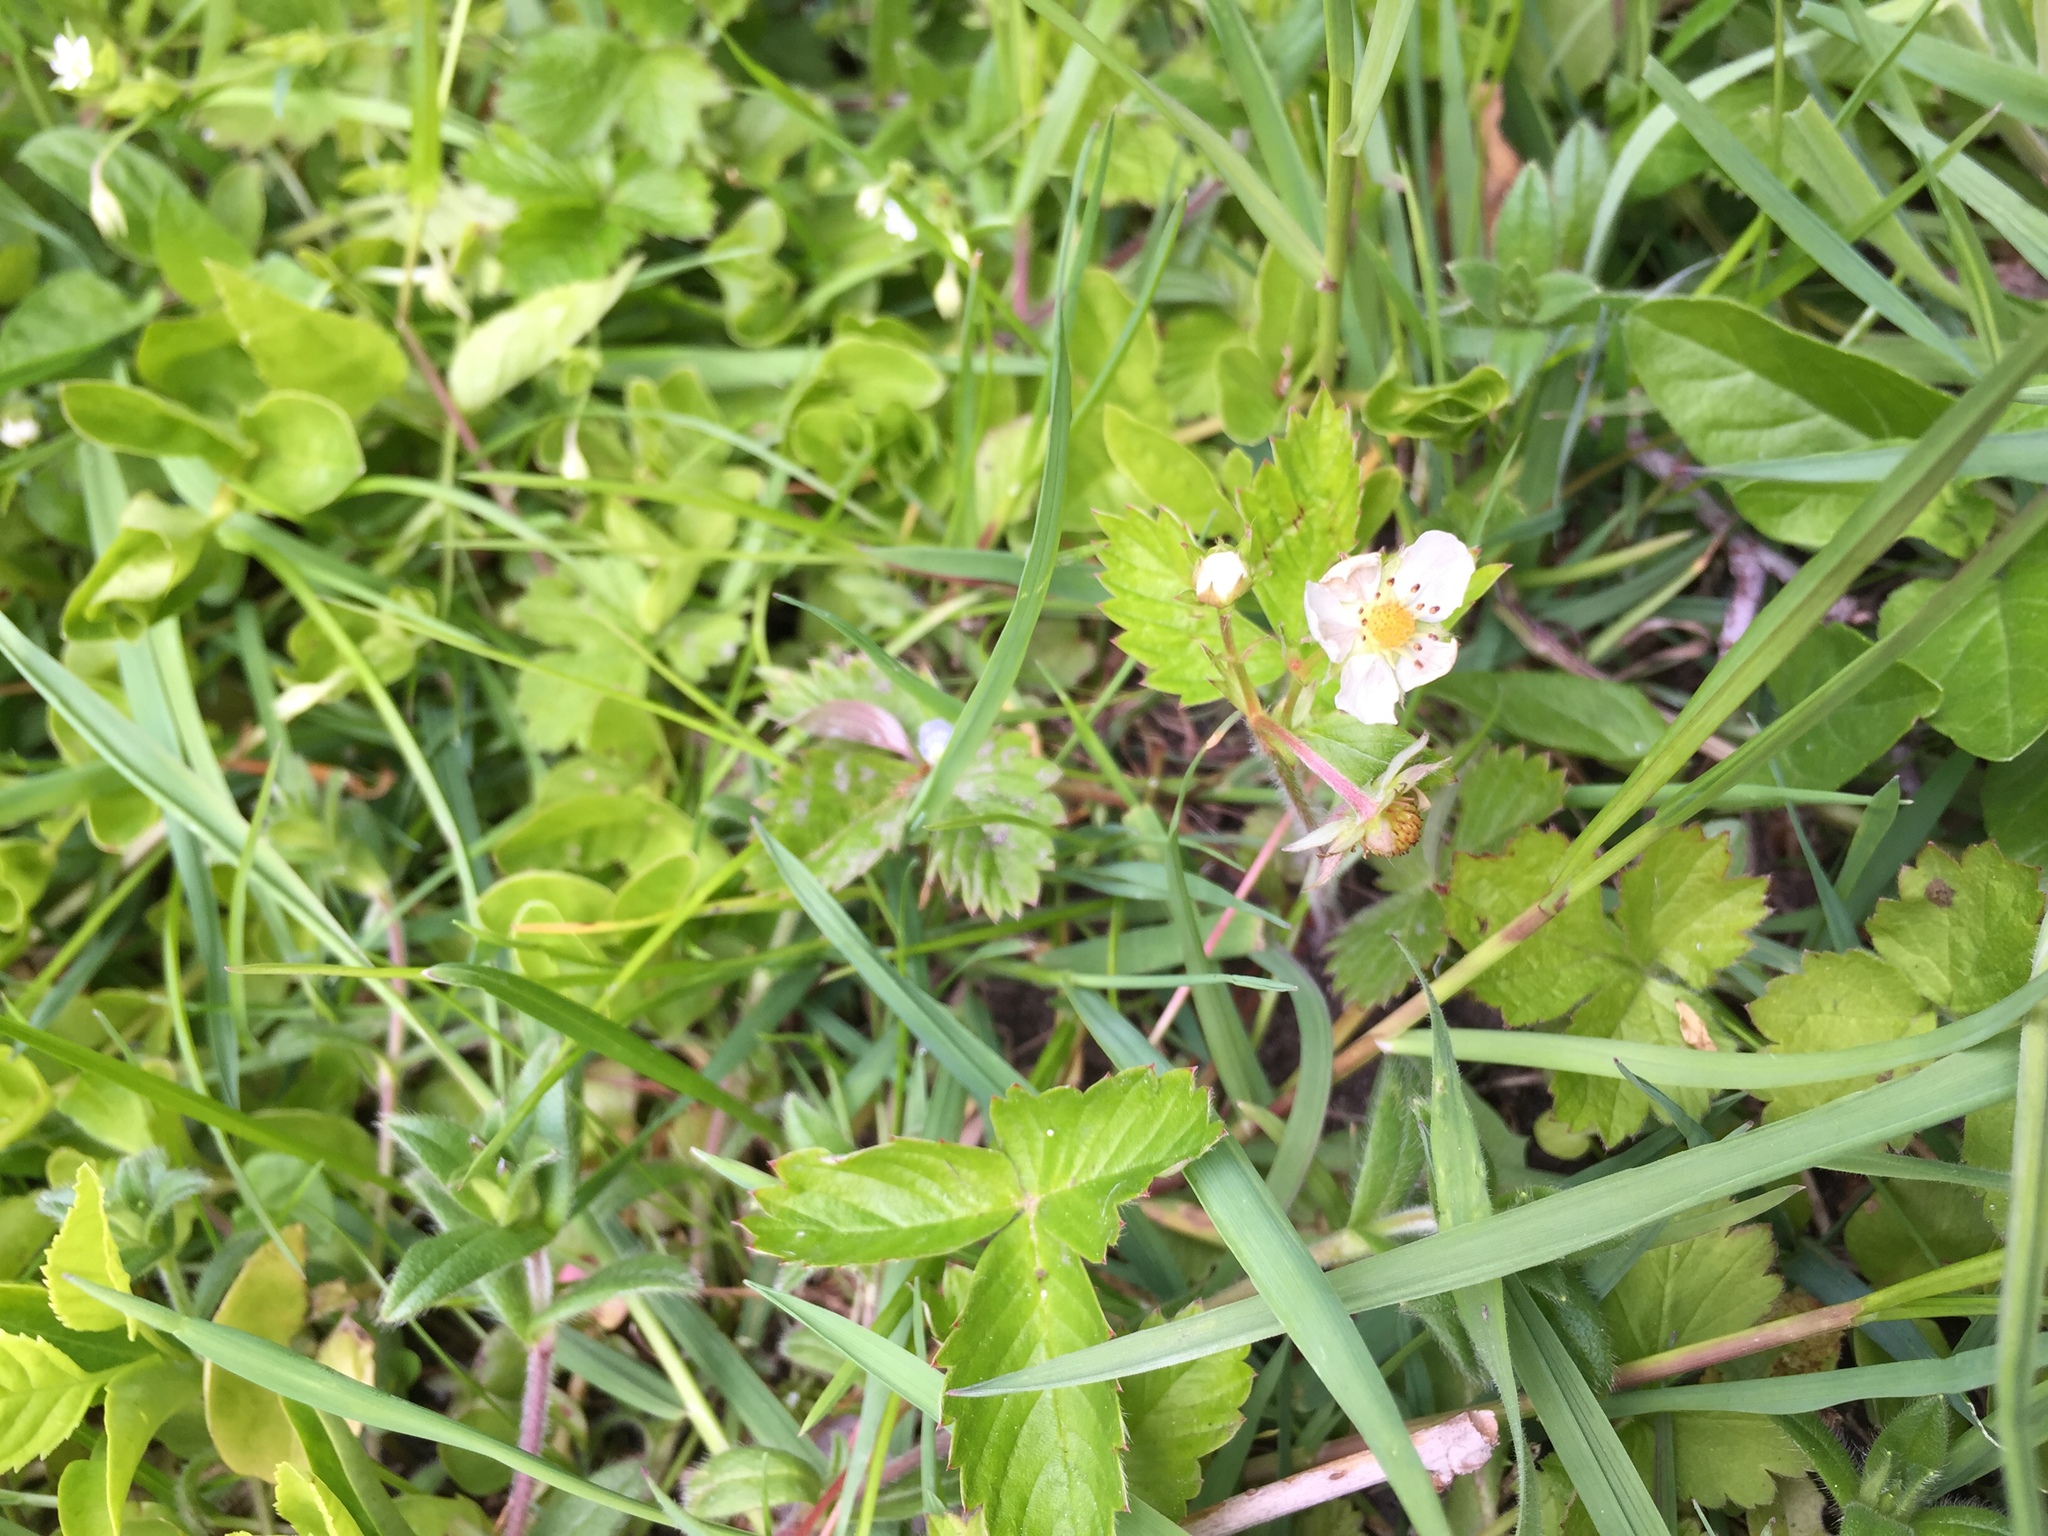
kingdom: Plantae
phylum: Tracheophyta
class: Magnoliopsida
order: Rosales
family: Rosaceae
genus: Fragaria
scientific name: Fragaria vesca
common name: Wild strawberry
